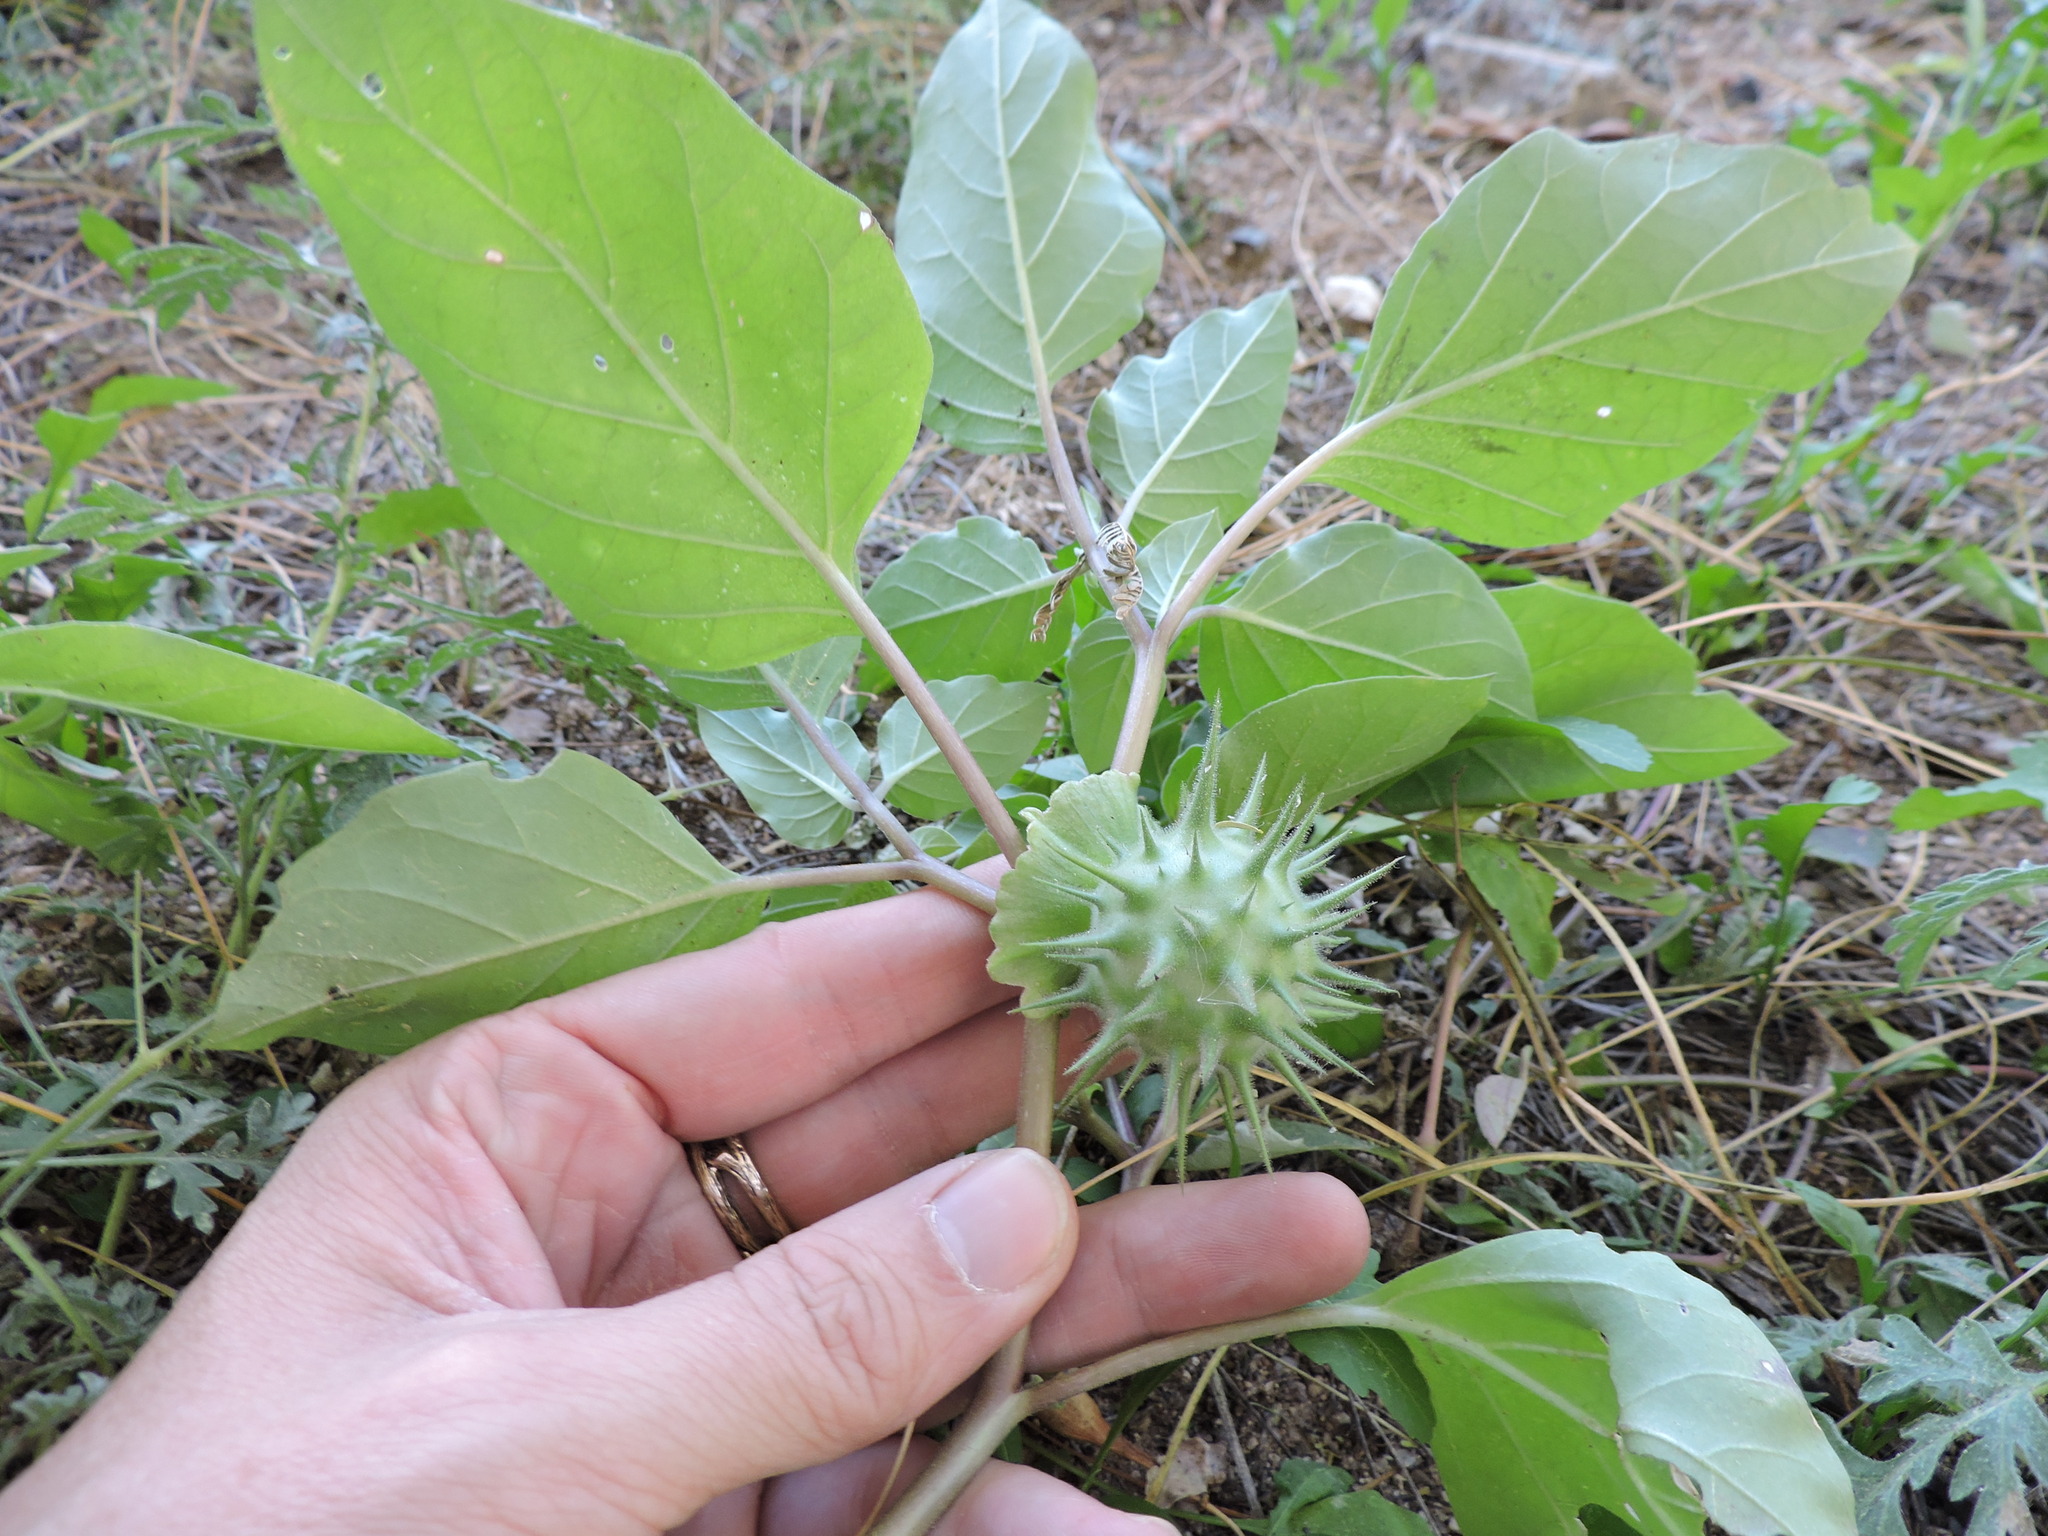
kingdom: Plantae
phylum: Tracheophyta
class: Magnoliopsida
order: Solanales
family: Solanaceae
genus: Datura
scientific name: Datura discolor
